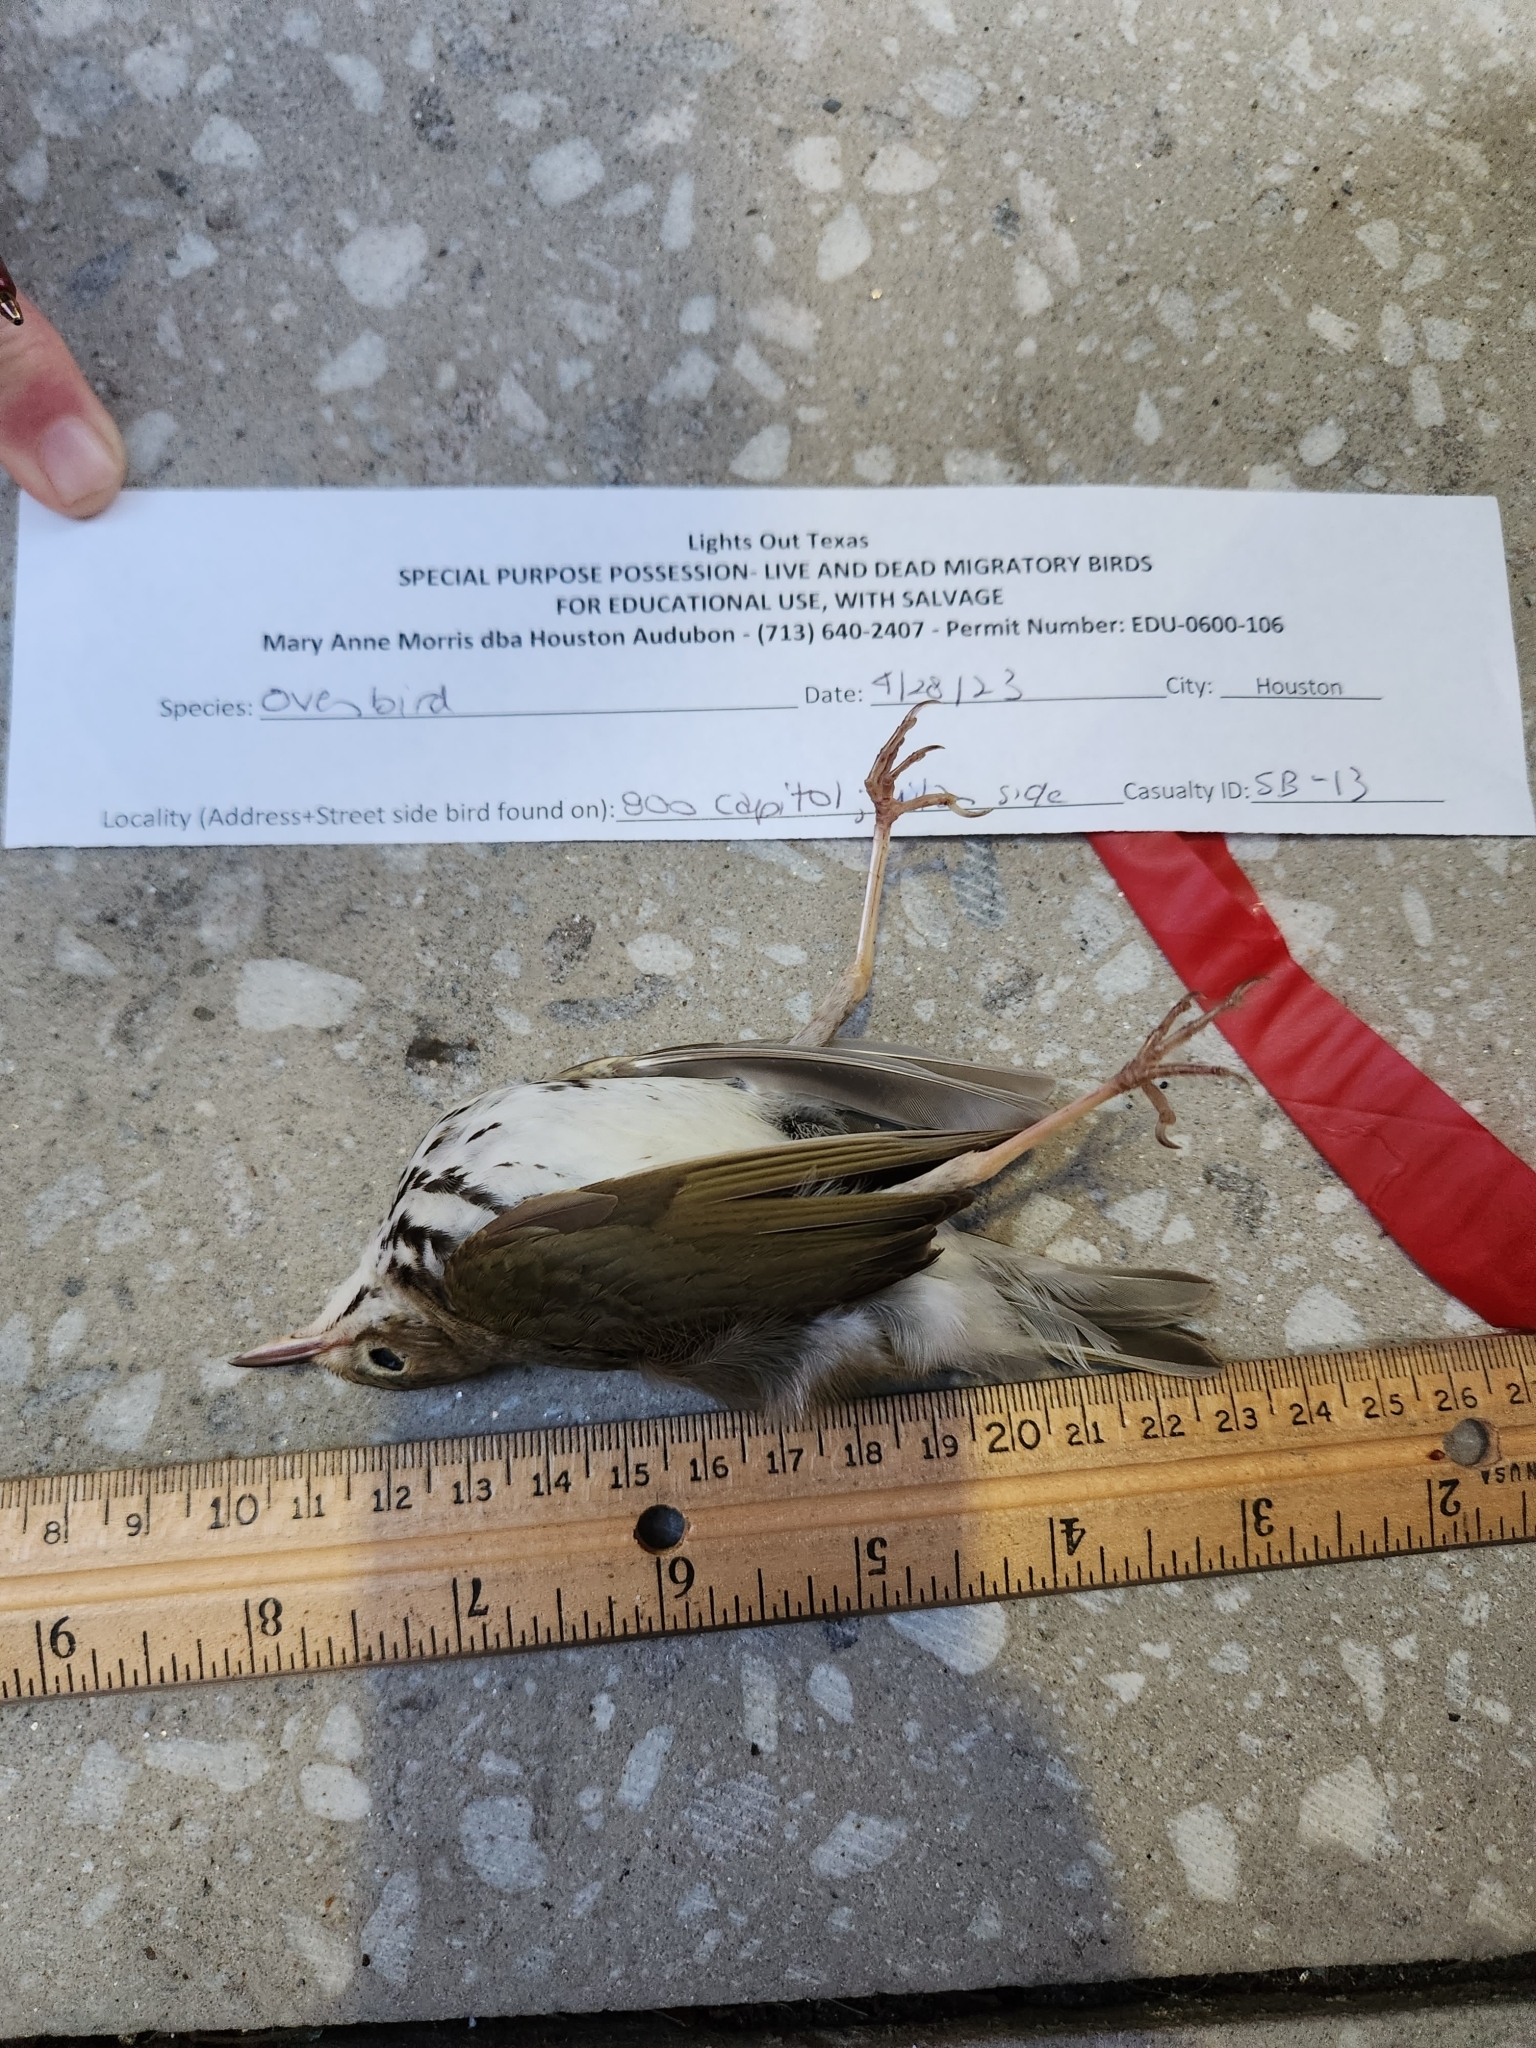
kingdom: Animalia
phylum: Chordata
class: Aves
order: Passeriformes
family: Parulidae
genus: Seiurus
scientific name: Seiurus aurocapilla
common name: Ovenbird
